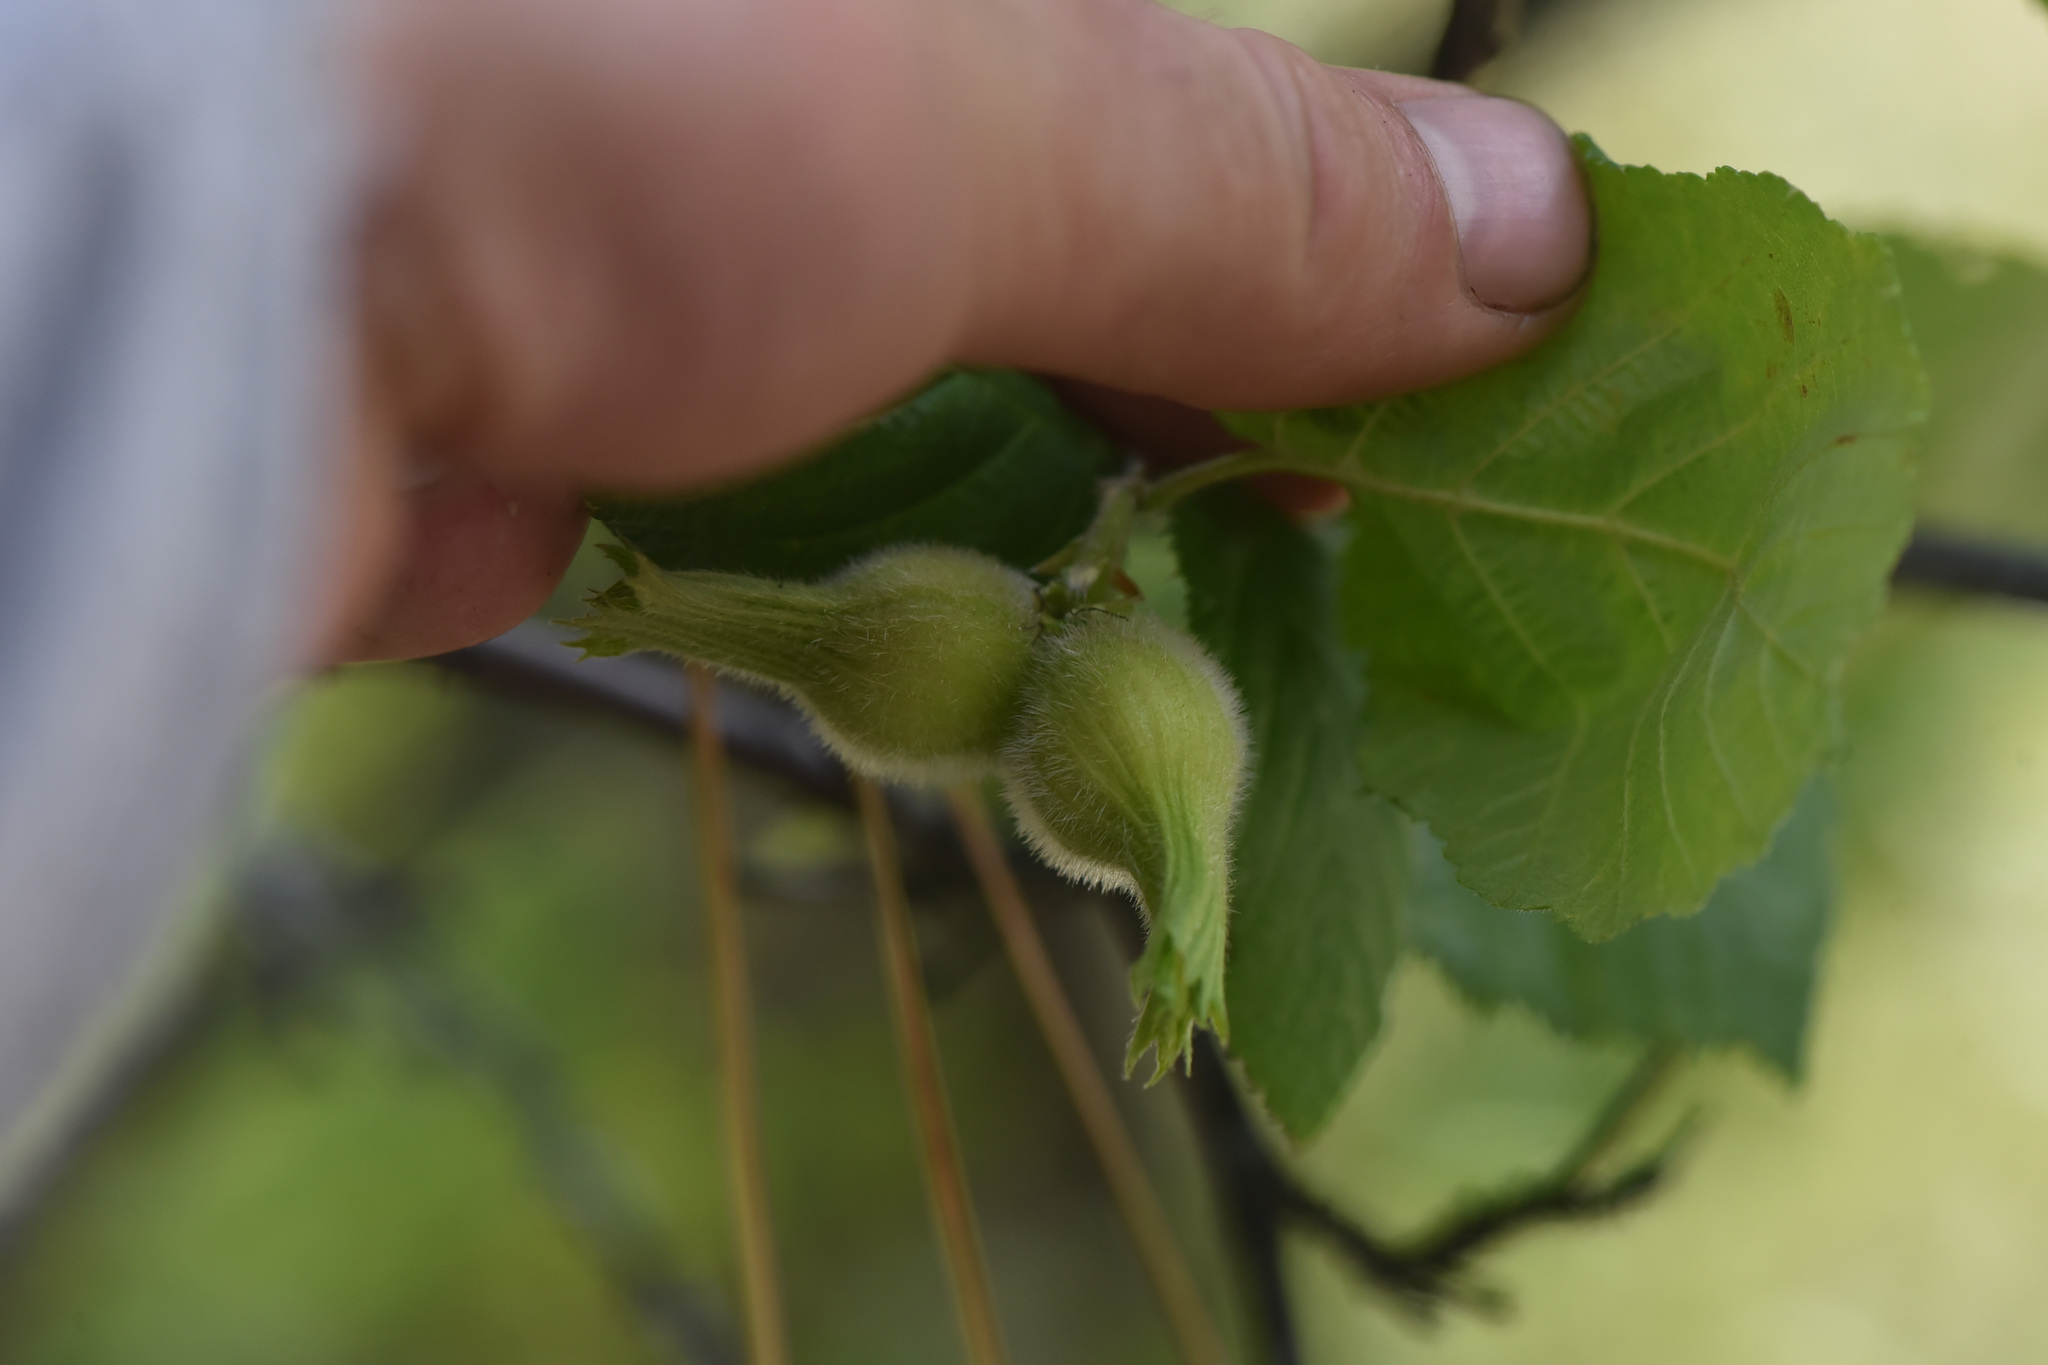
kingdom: Plantae
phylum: Tracheophyta
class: Magnoliopsida
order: Fagales
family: Betulaceae
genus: Corylus
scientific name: Corylus cornuta
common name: Beaked hazel
